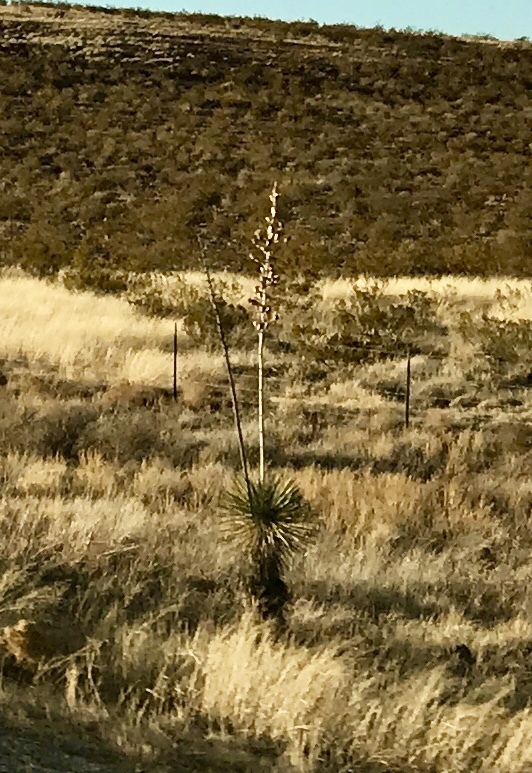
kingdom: Plantae
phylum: Tracheophyta
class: Liliopsida
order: Asparagales
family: Asparagaceae
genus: Yucca
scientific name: Yucca elata
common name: Palmella
